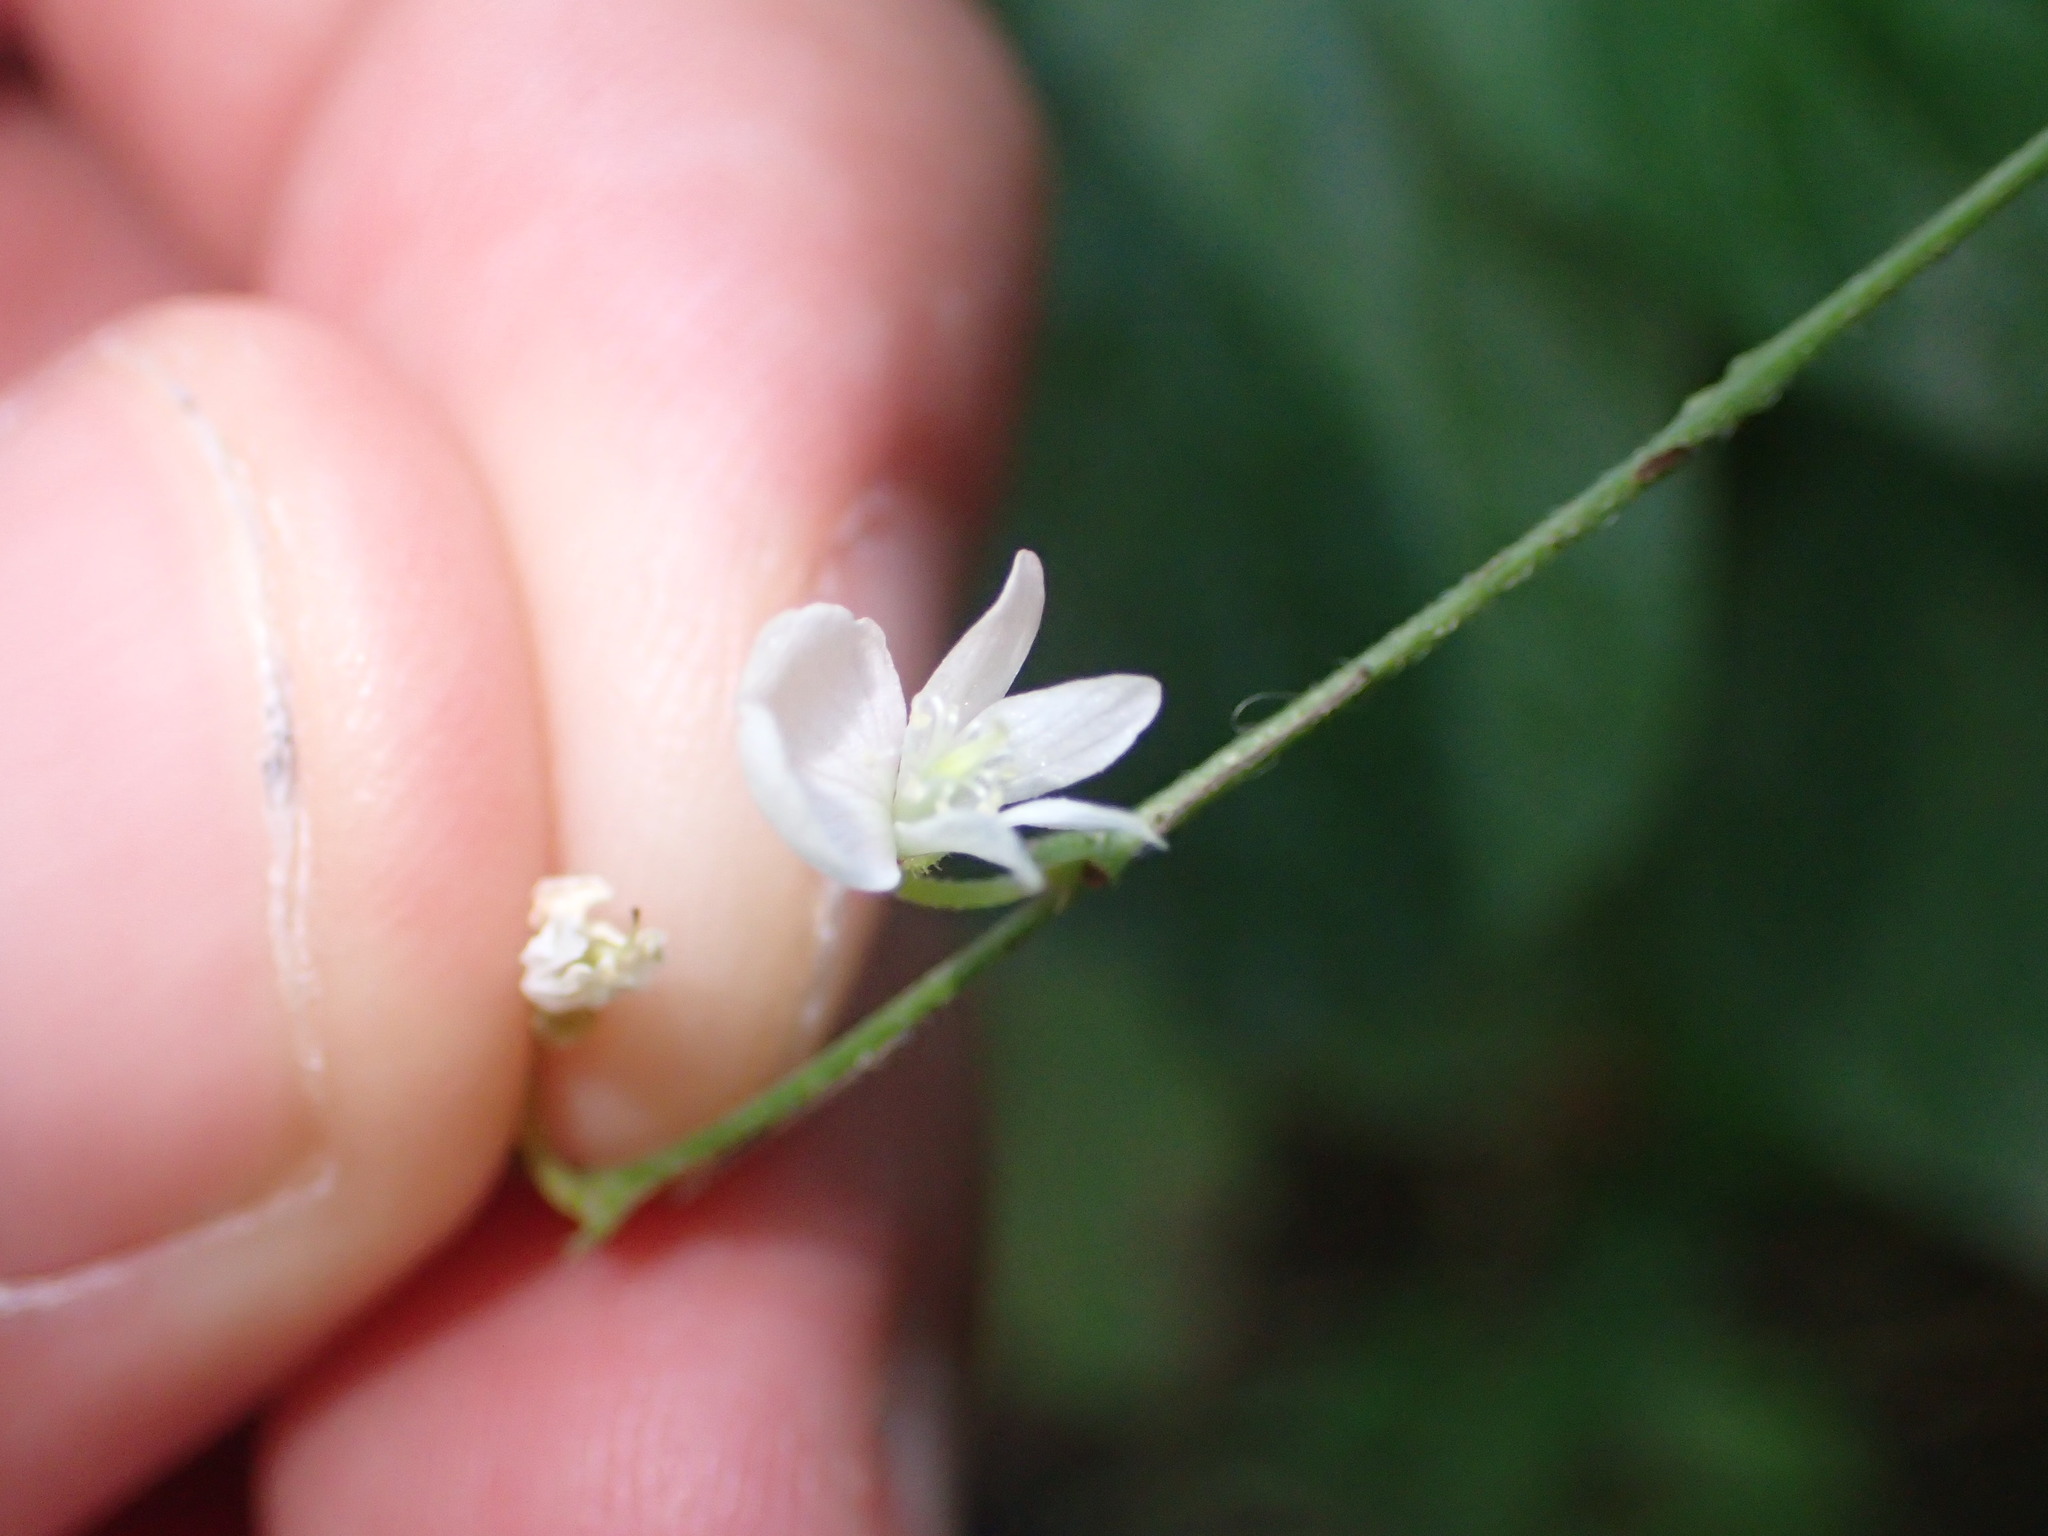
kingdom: Plantae
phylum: Tracheophyta
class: Magnoliopsida
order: Fabales
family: Fabaceae
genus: Hylodesmum
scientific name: Hylodesmum pauciflorum
